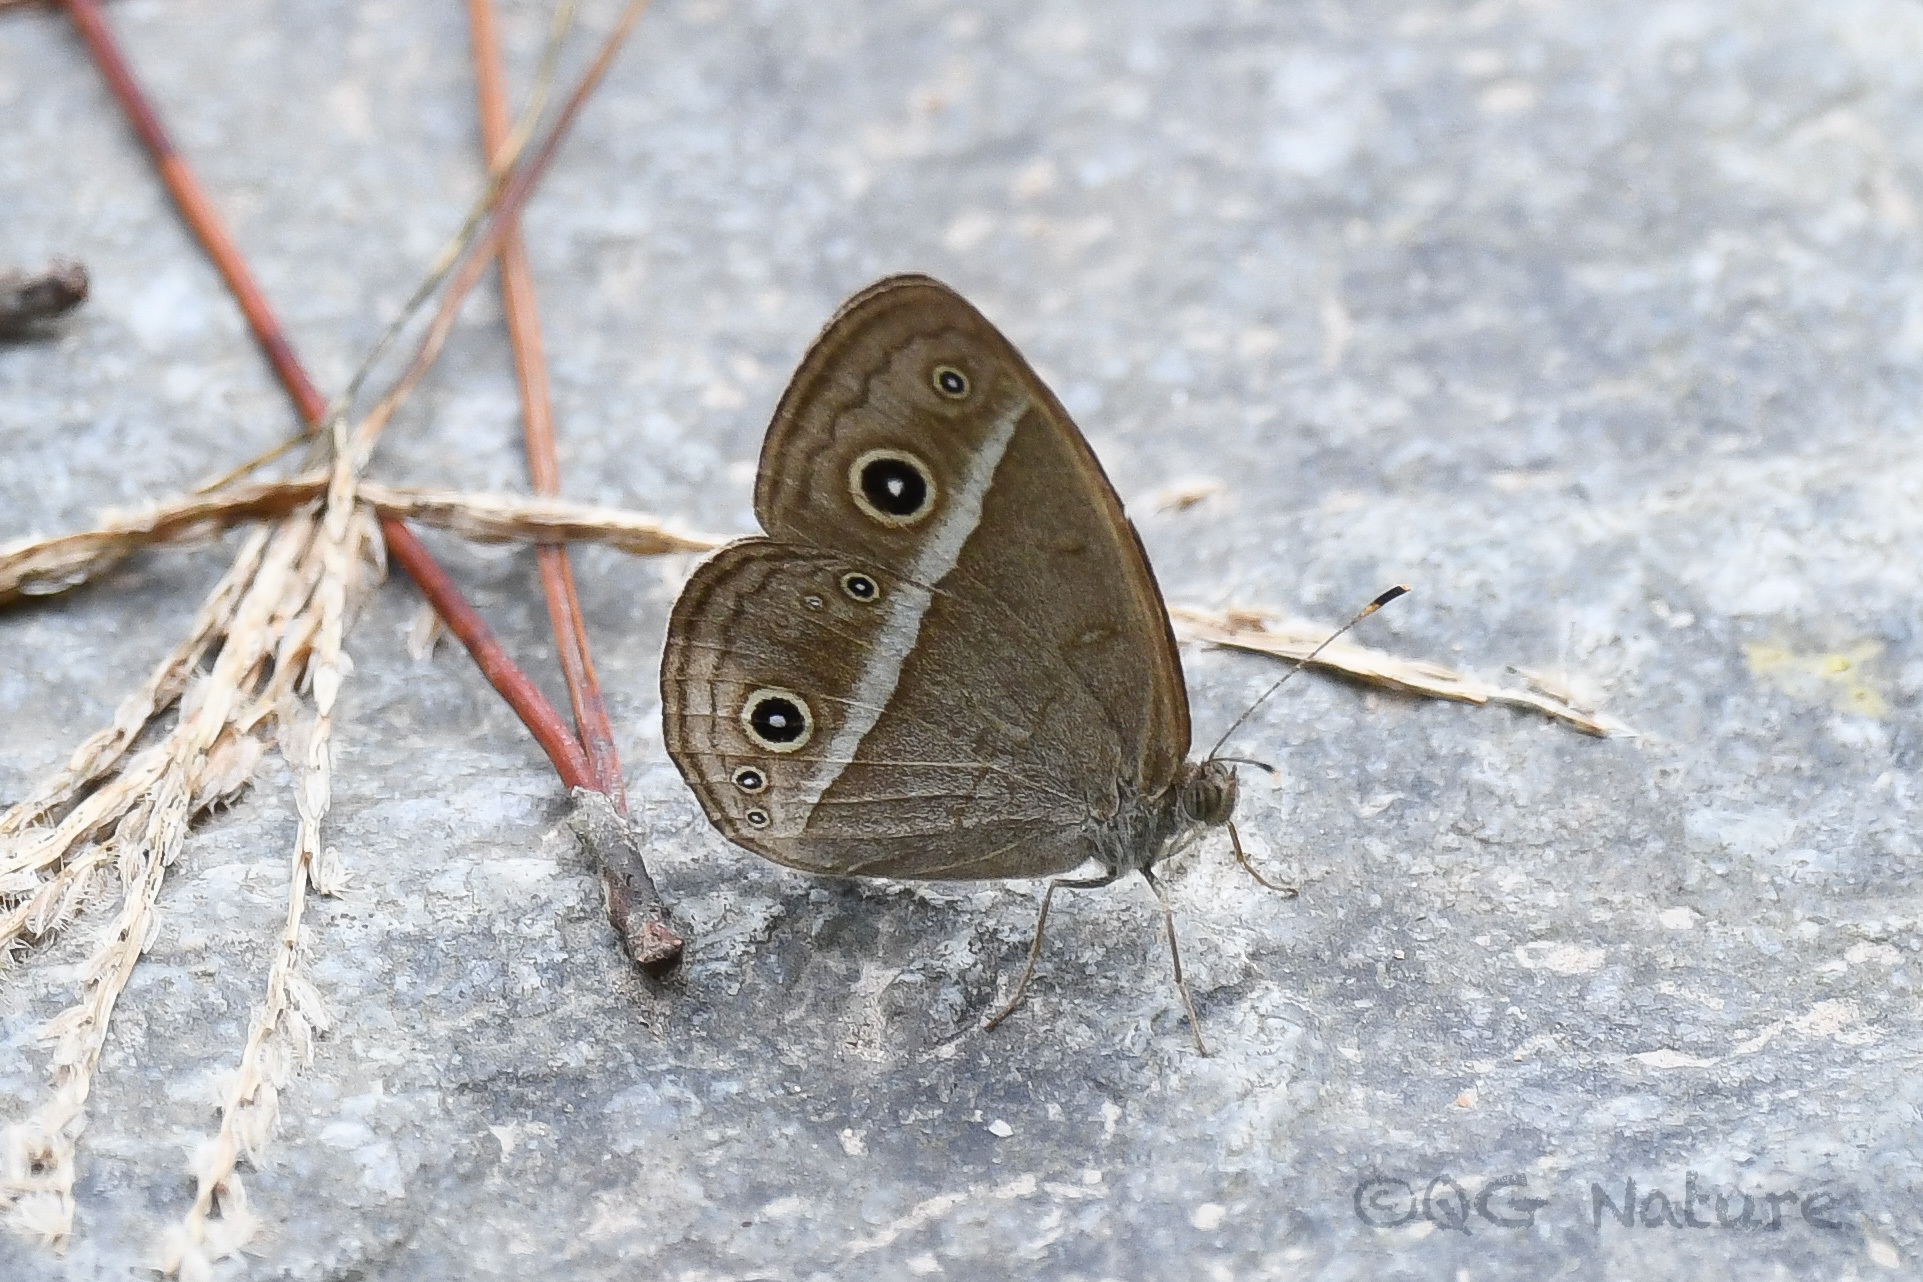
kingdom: Animalia
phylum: Arthropoda
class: Insecta
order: Lepidoptera
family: Nymphalidae
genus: Mycalesis
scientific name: Mycalesis gotama
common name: Chinese bushbrown
